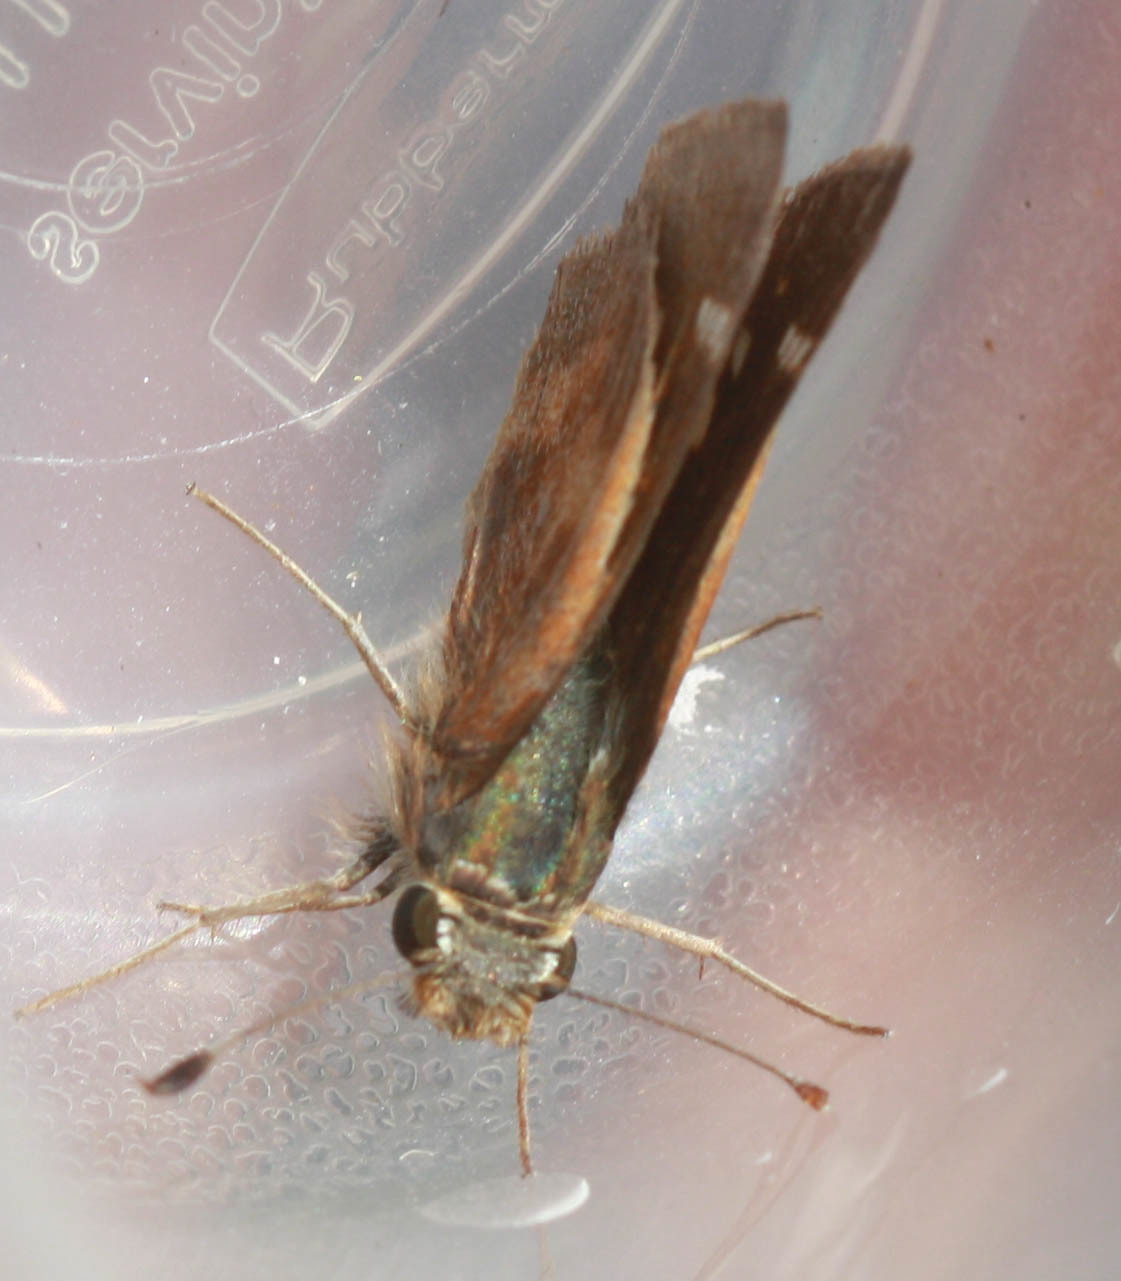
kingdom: Animalia
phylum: Arthropoda
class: Insecta
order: Lepidoptera
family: Hesperiidae
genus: Lon
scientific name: Lon melane
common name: Umber skipper
